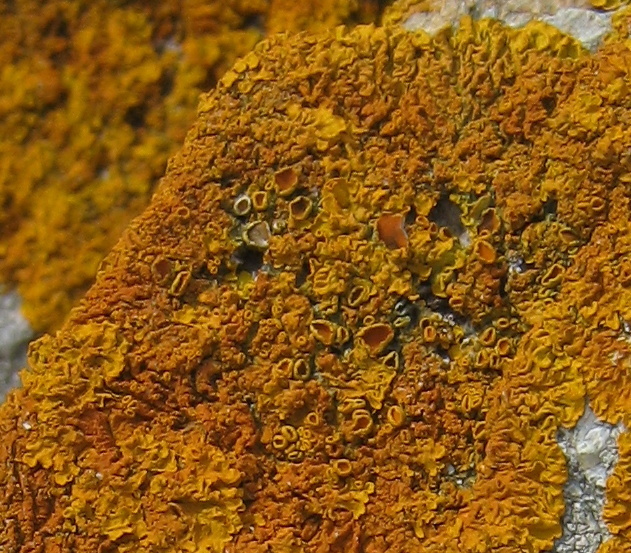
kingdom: Fungi
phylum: Ascomycota
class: Lecanoromycetes
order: Teloschistales
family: Teloschistaceae
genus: Xanthoria
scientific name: Xanthoria parietina
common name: Common orange lichen
